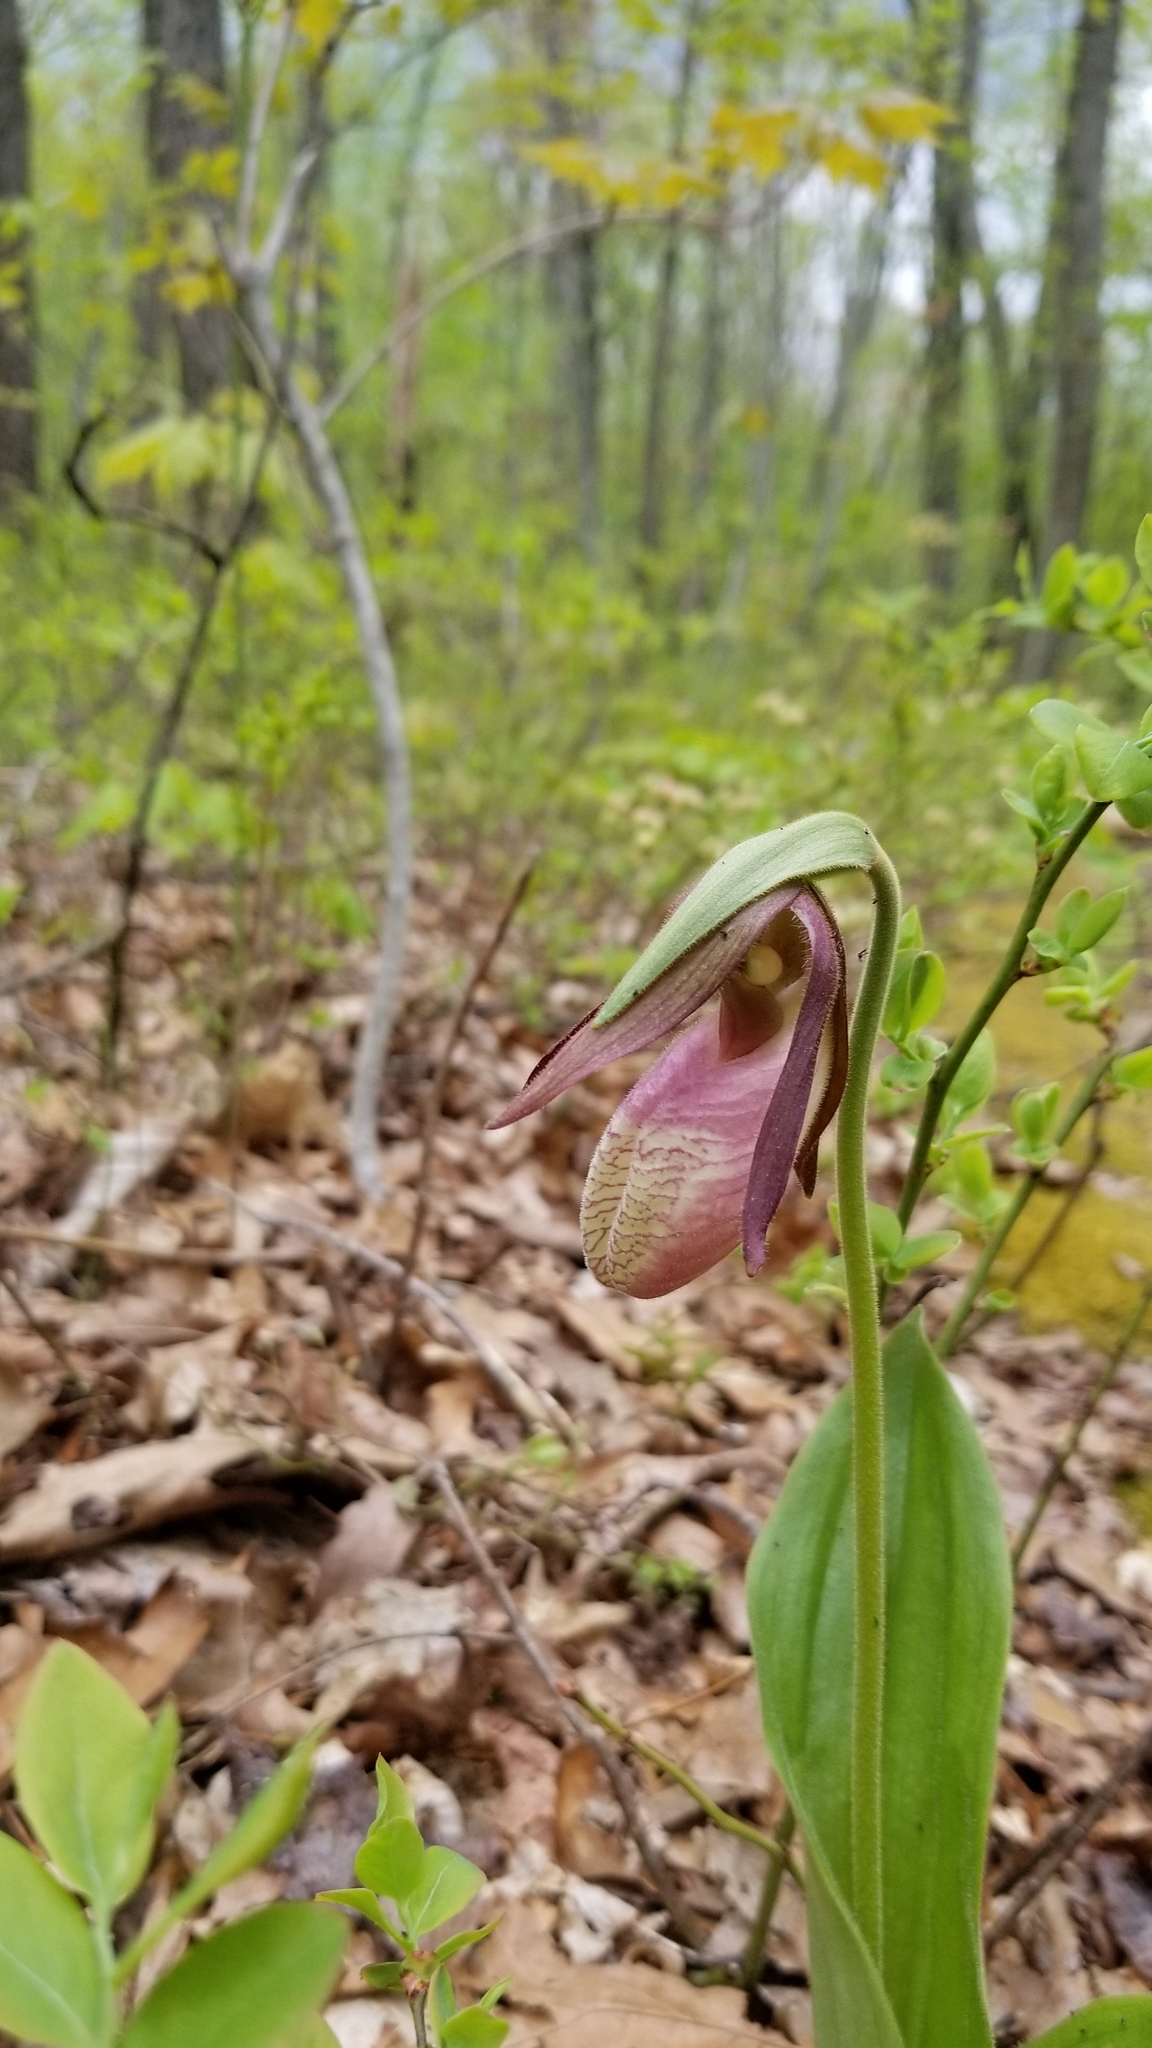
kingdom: Plantae
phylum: Tracheophyta
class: Liliopsida
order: Asparagales
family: Orchidaceae
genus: Cypripedium
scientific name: Cypripedium acaule
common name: Pink lady's-slipper
